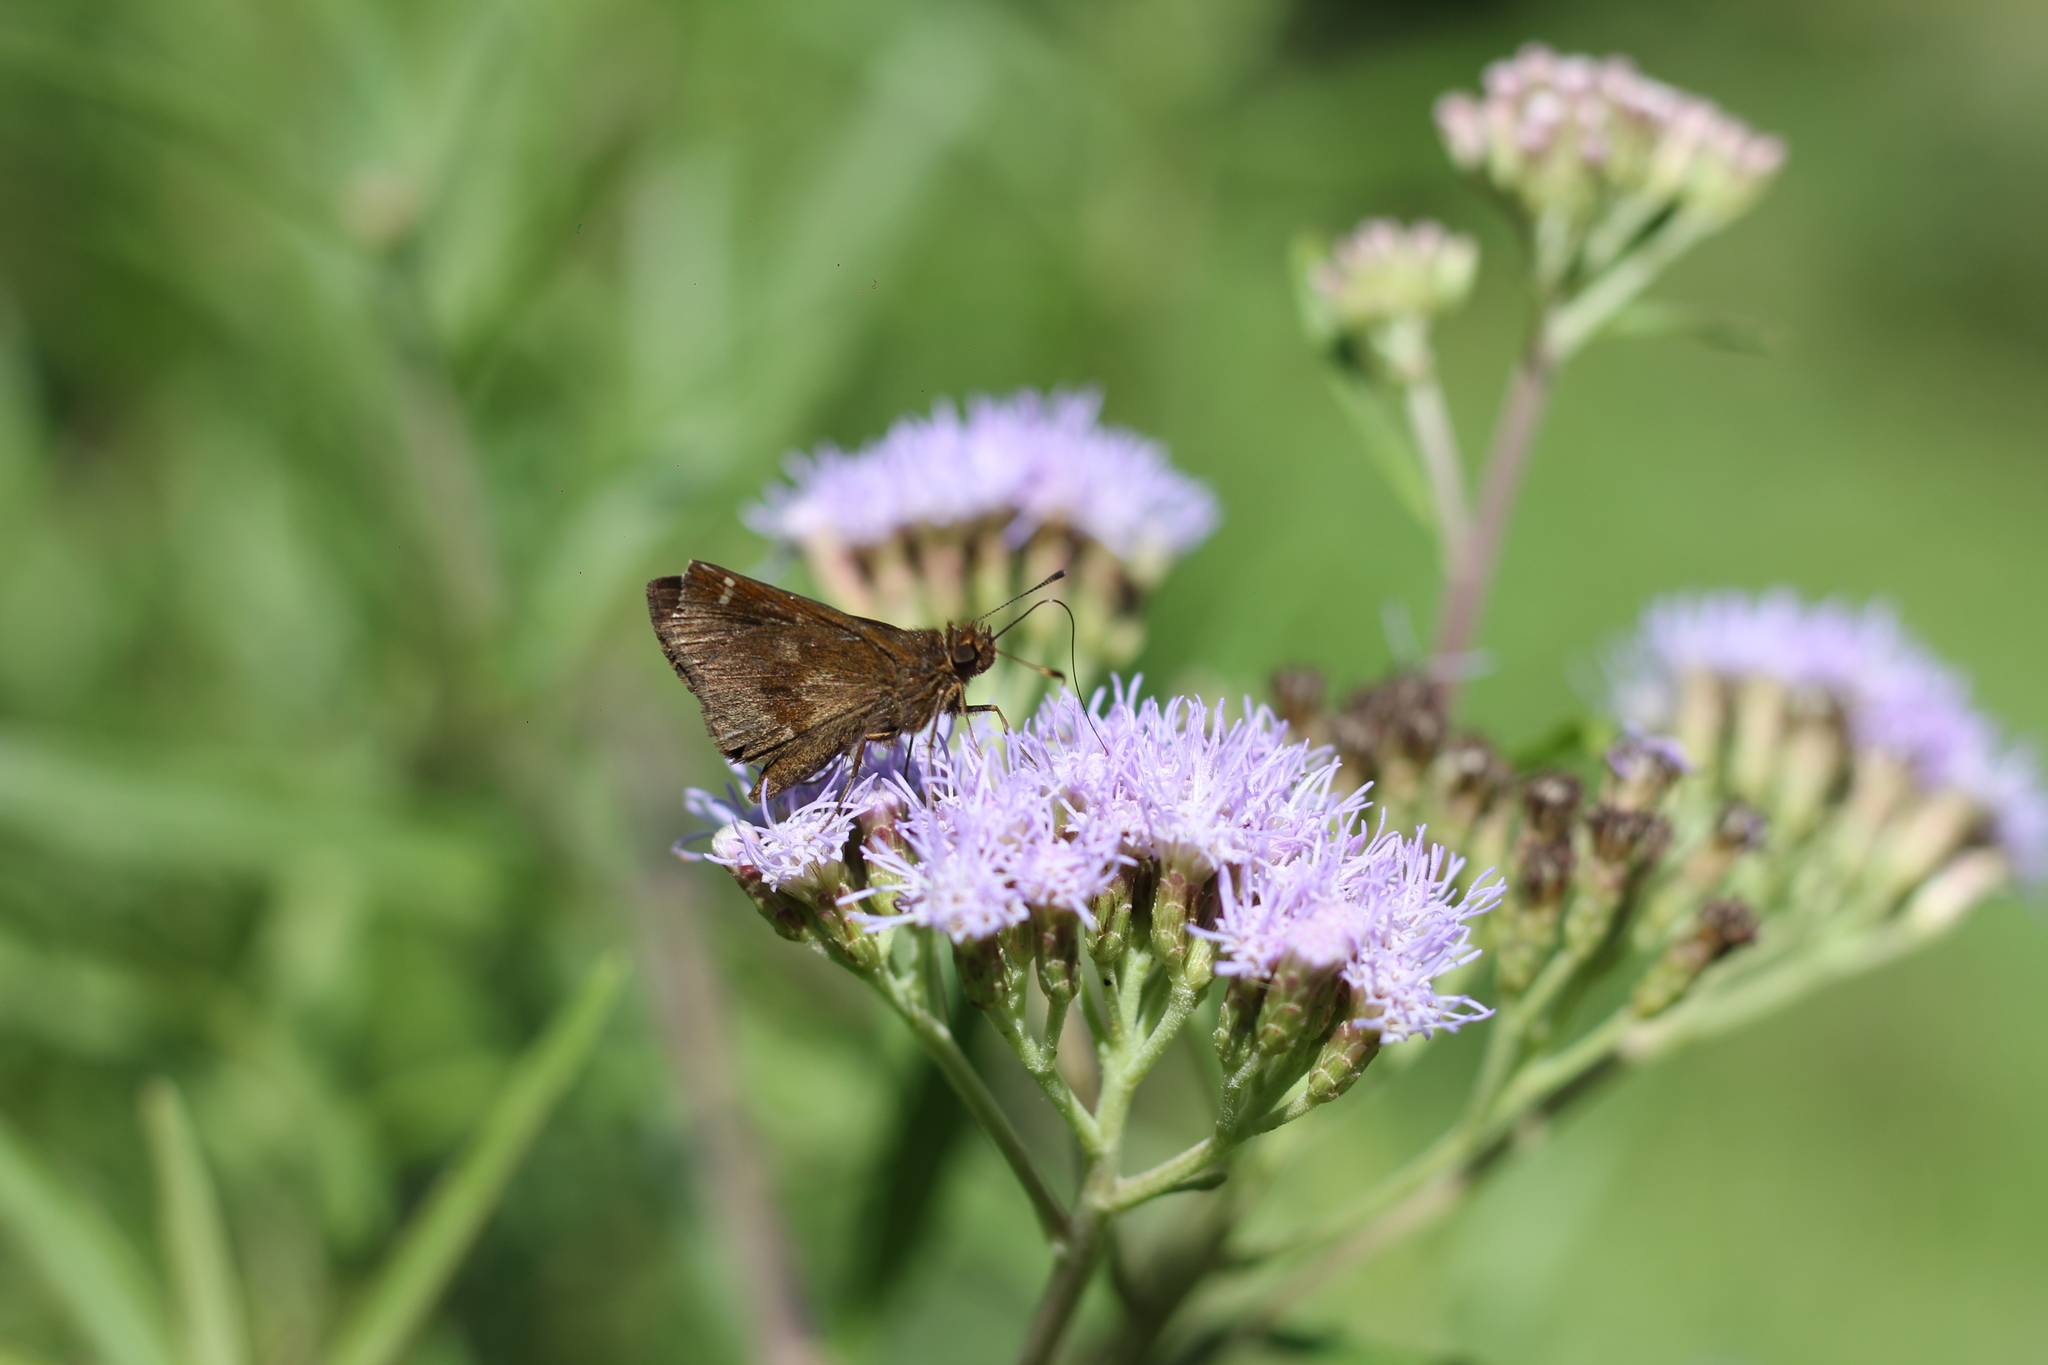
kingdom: Animalia
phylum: Arthropoda
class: Insecta
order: Lepidoptera
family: Hesperiidae
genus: Cymaenes
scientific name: Cymaenes
